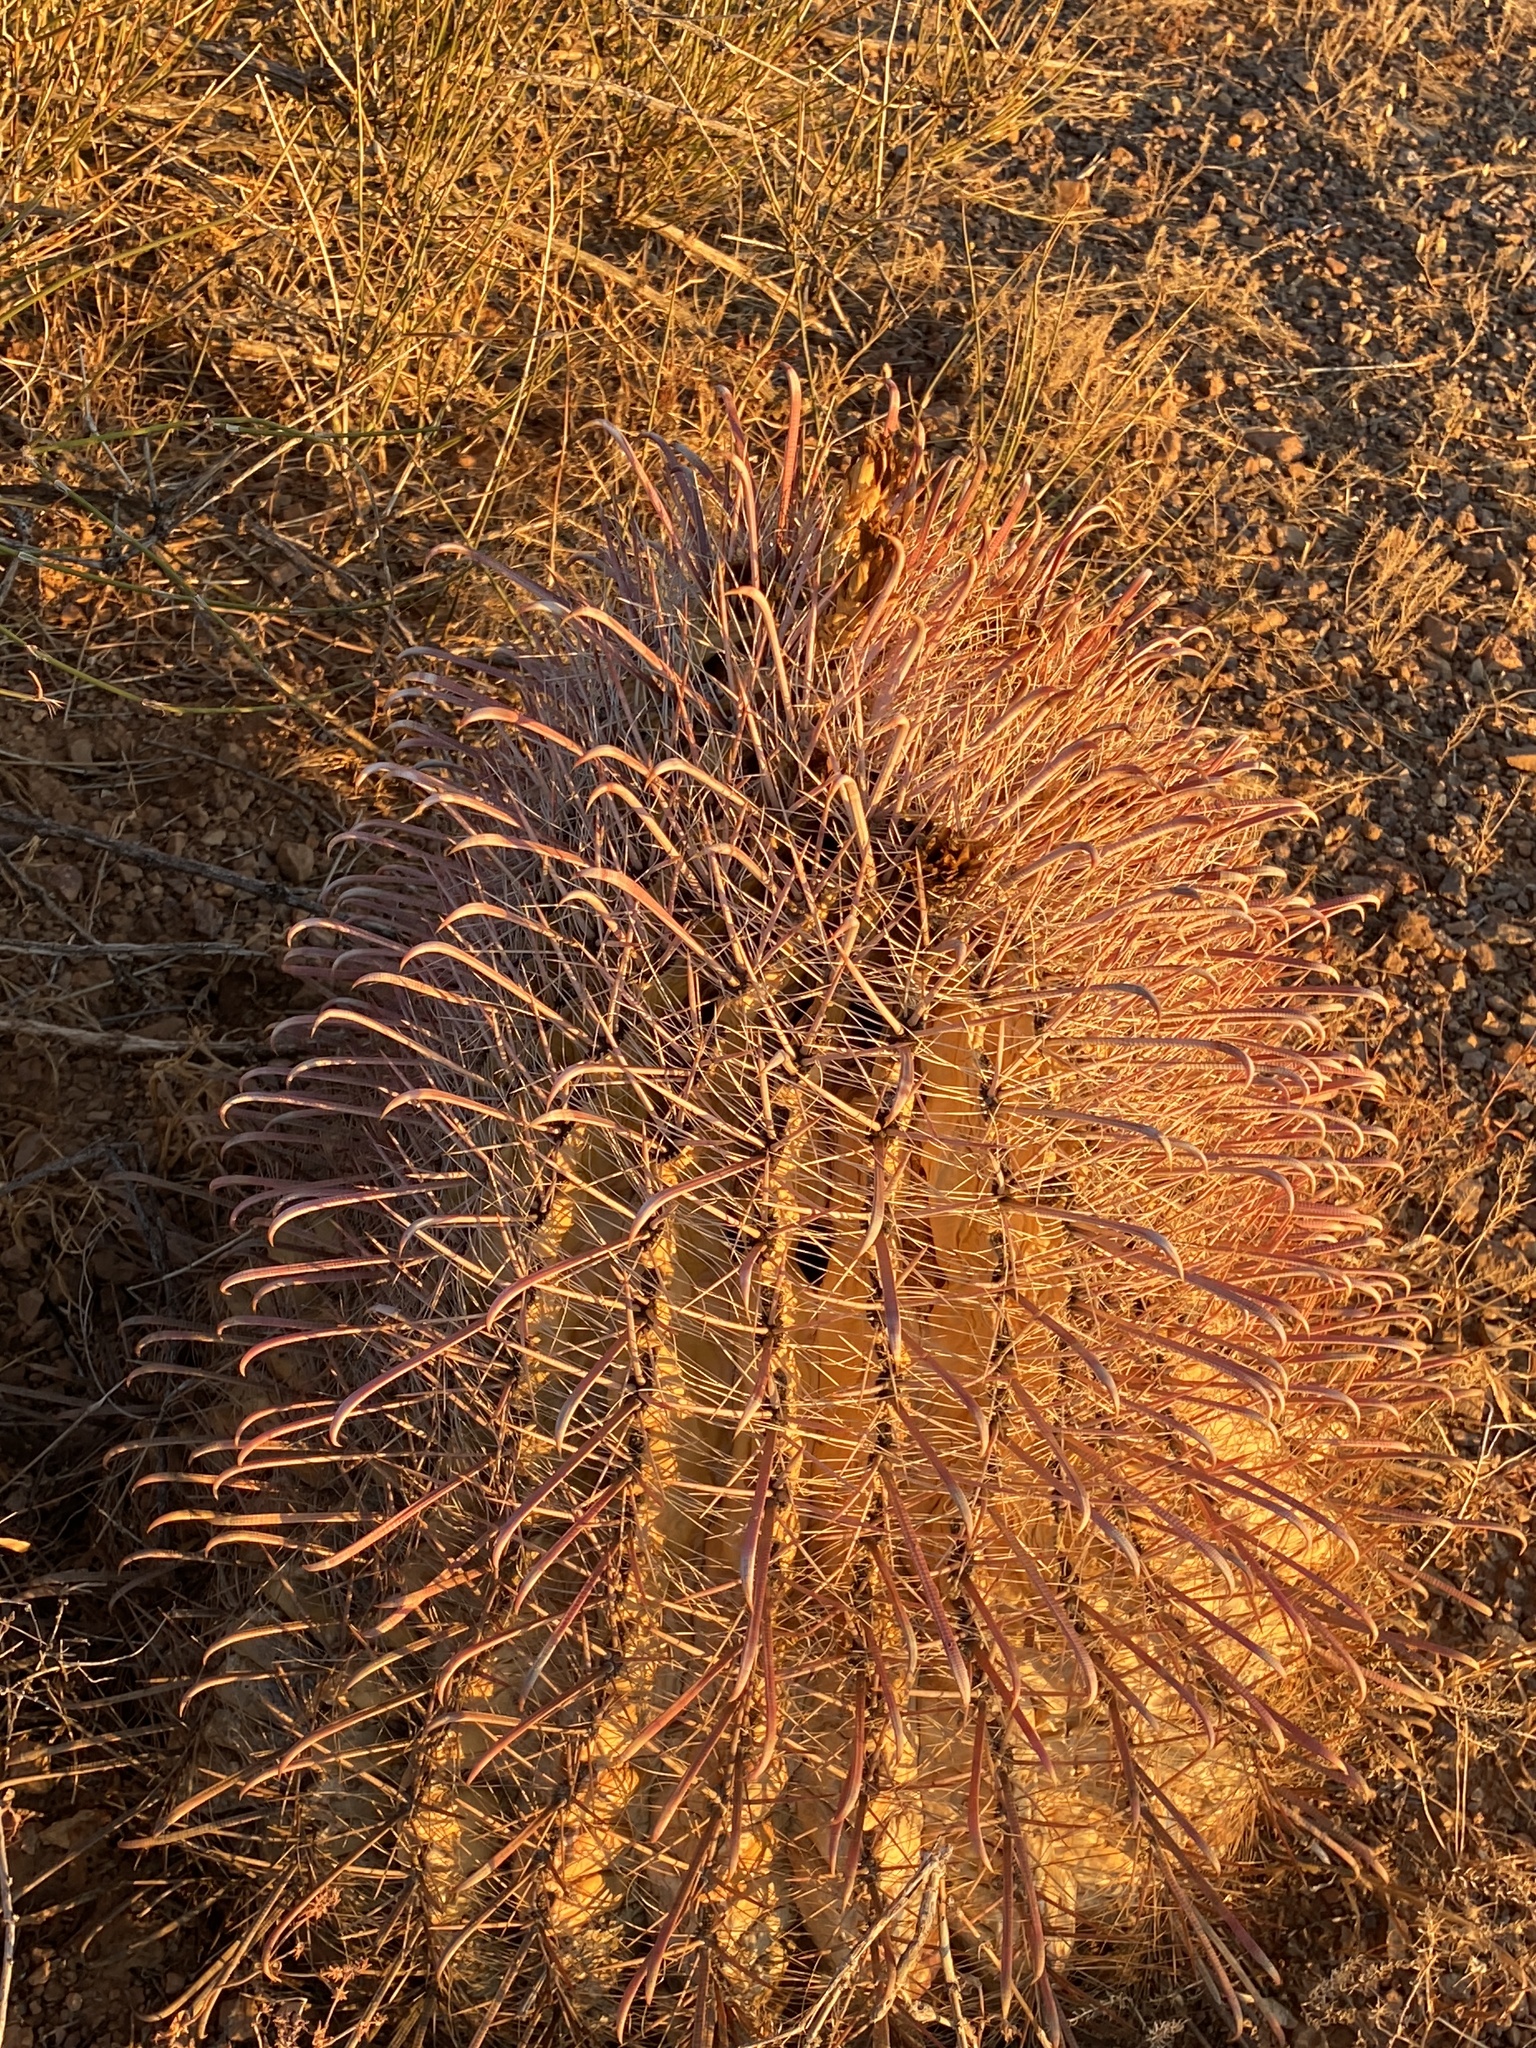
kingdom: Plantae
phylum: Tracheophyta
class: Magnoliopsida
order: Caryophyllales
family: Cactaceae
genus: Ferocactus
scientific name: Ferocactus wislizeni
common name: Candy barrel cactus
